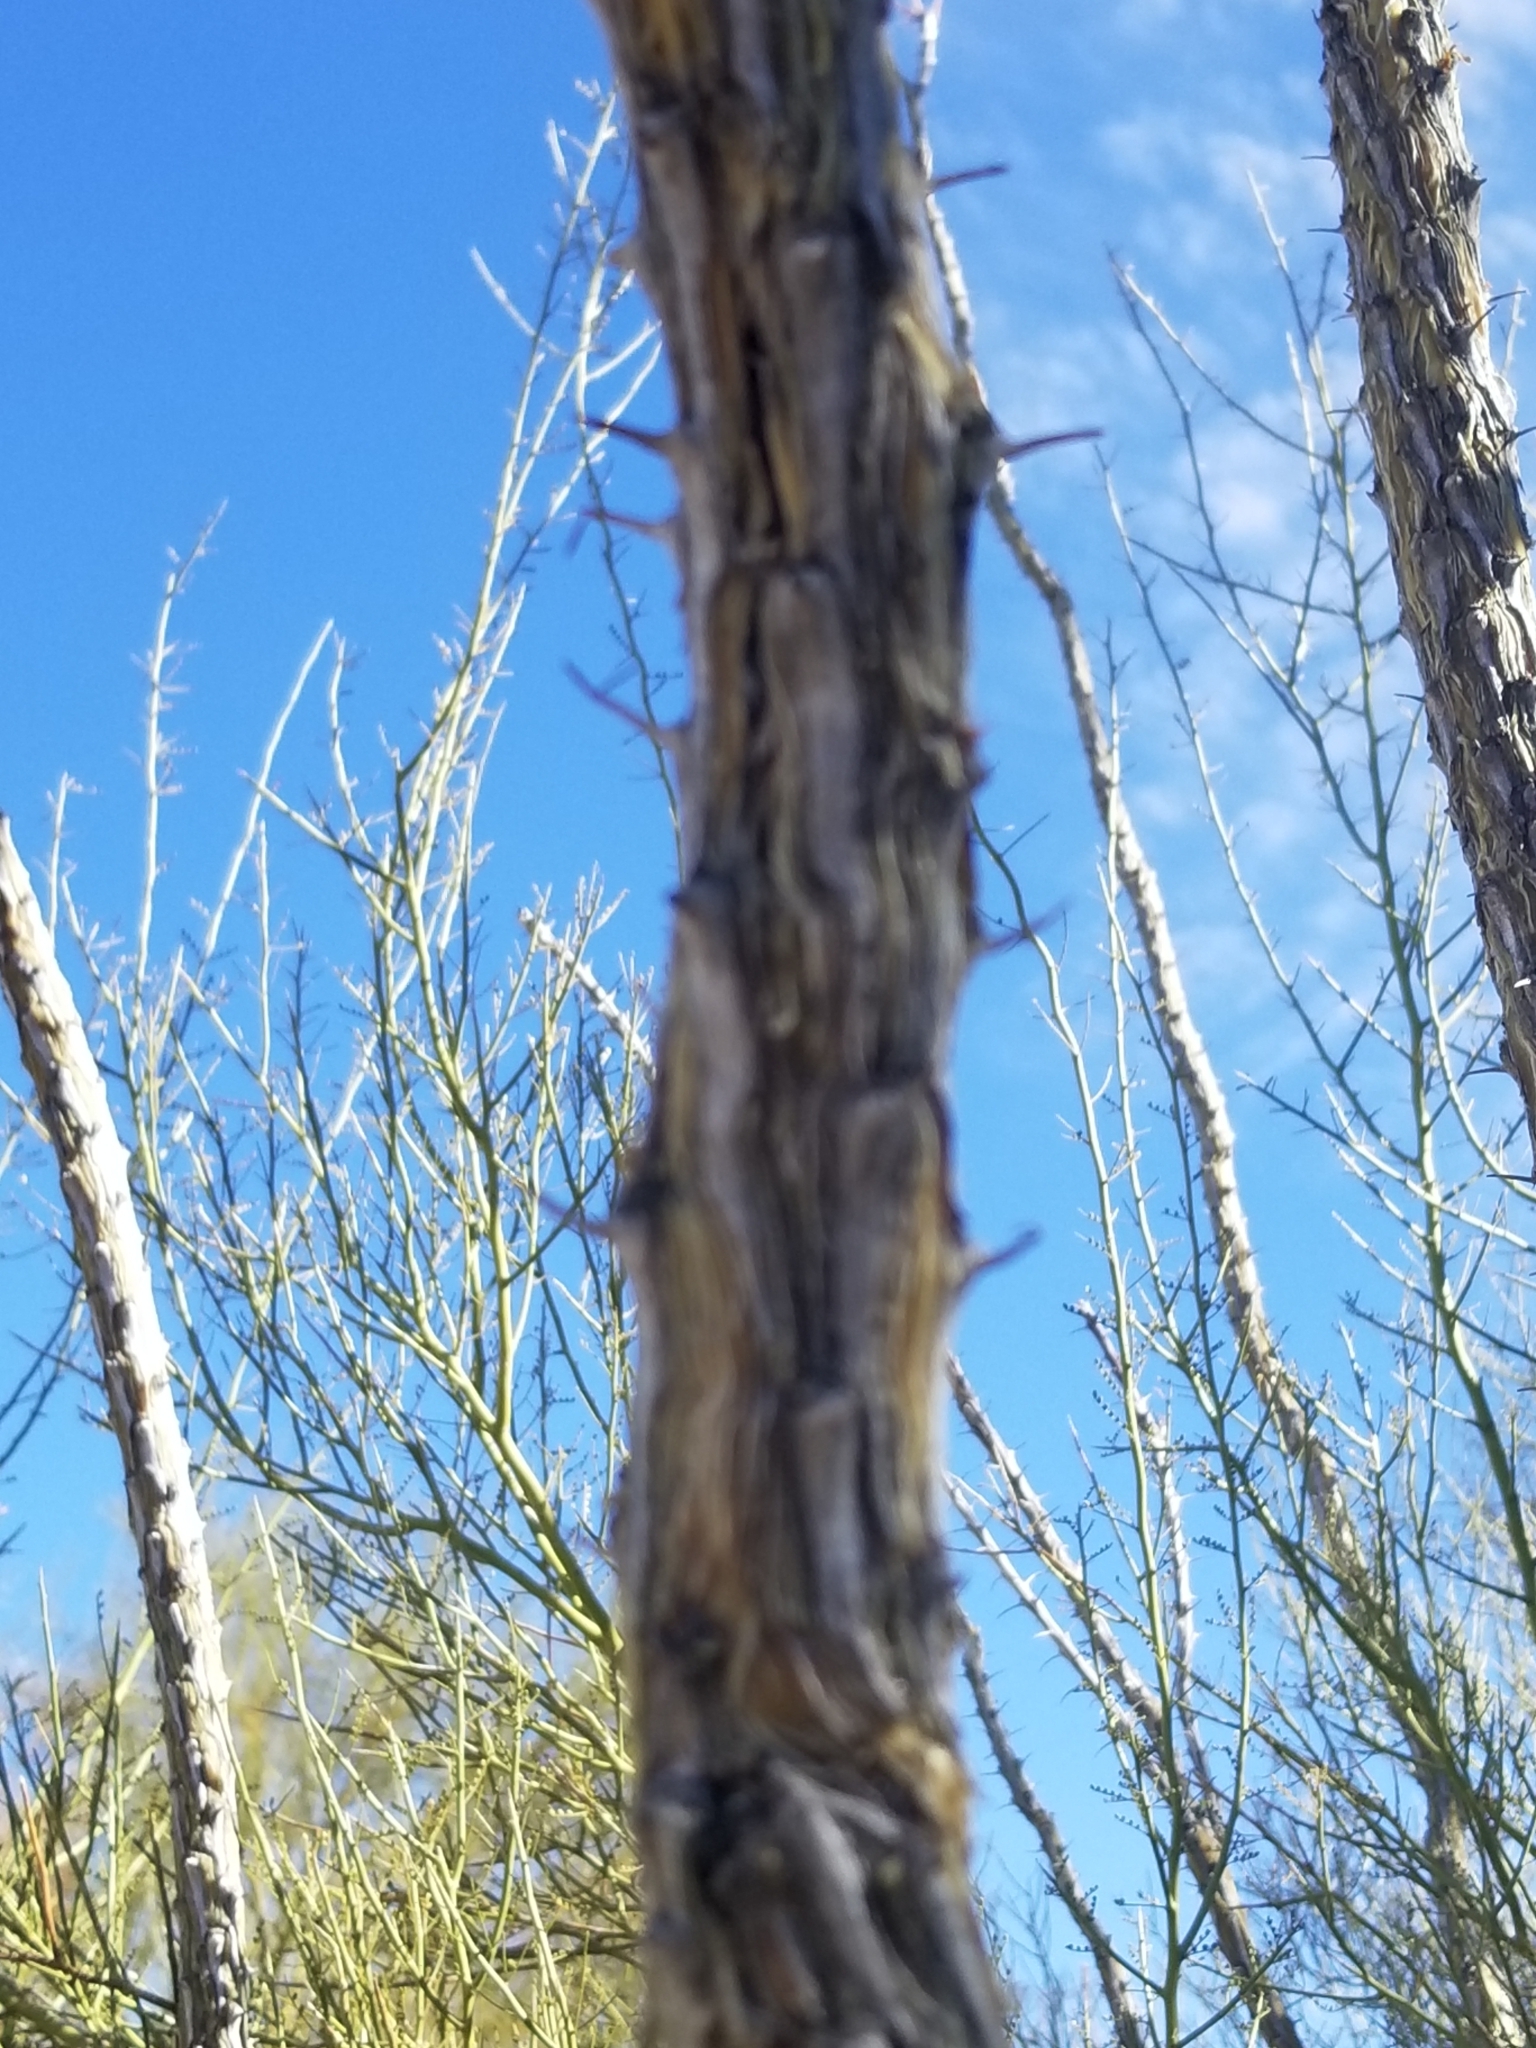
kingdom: Plantae
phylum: Tracheophyta
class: Magnoliopsida
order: Ericales
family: Fouquieriaceae
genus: Fouquieria
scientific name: Fouquieria splendens
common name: Vine-cactus
